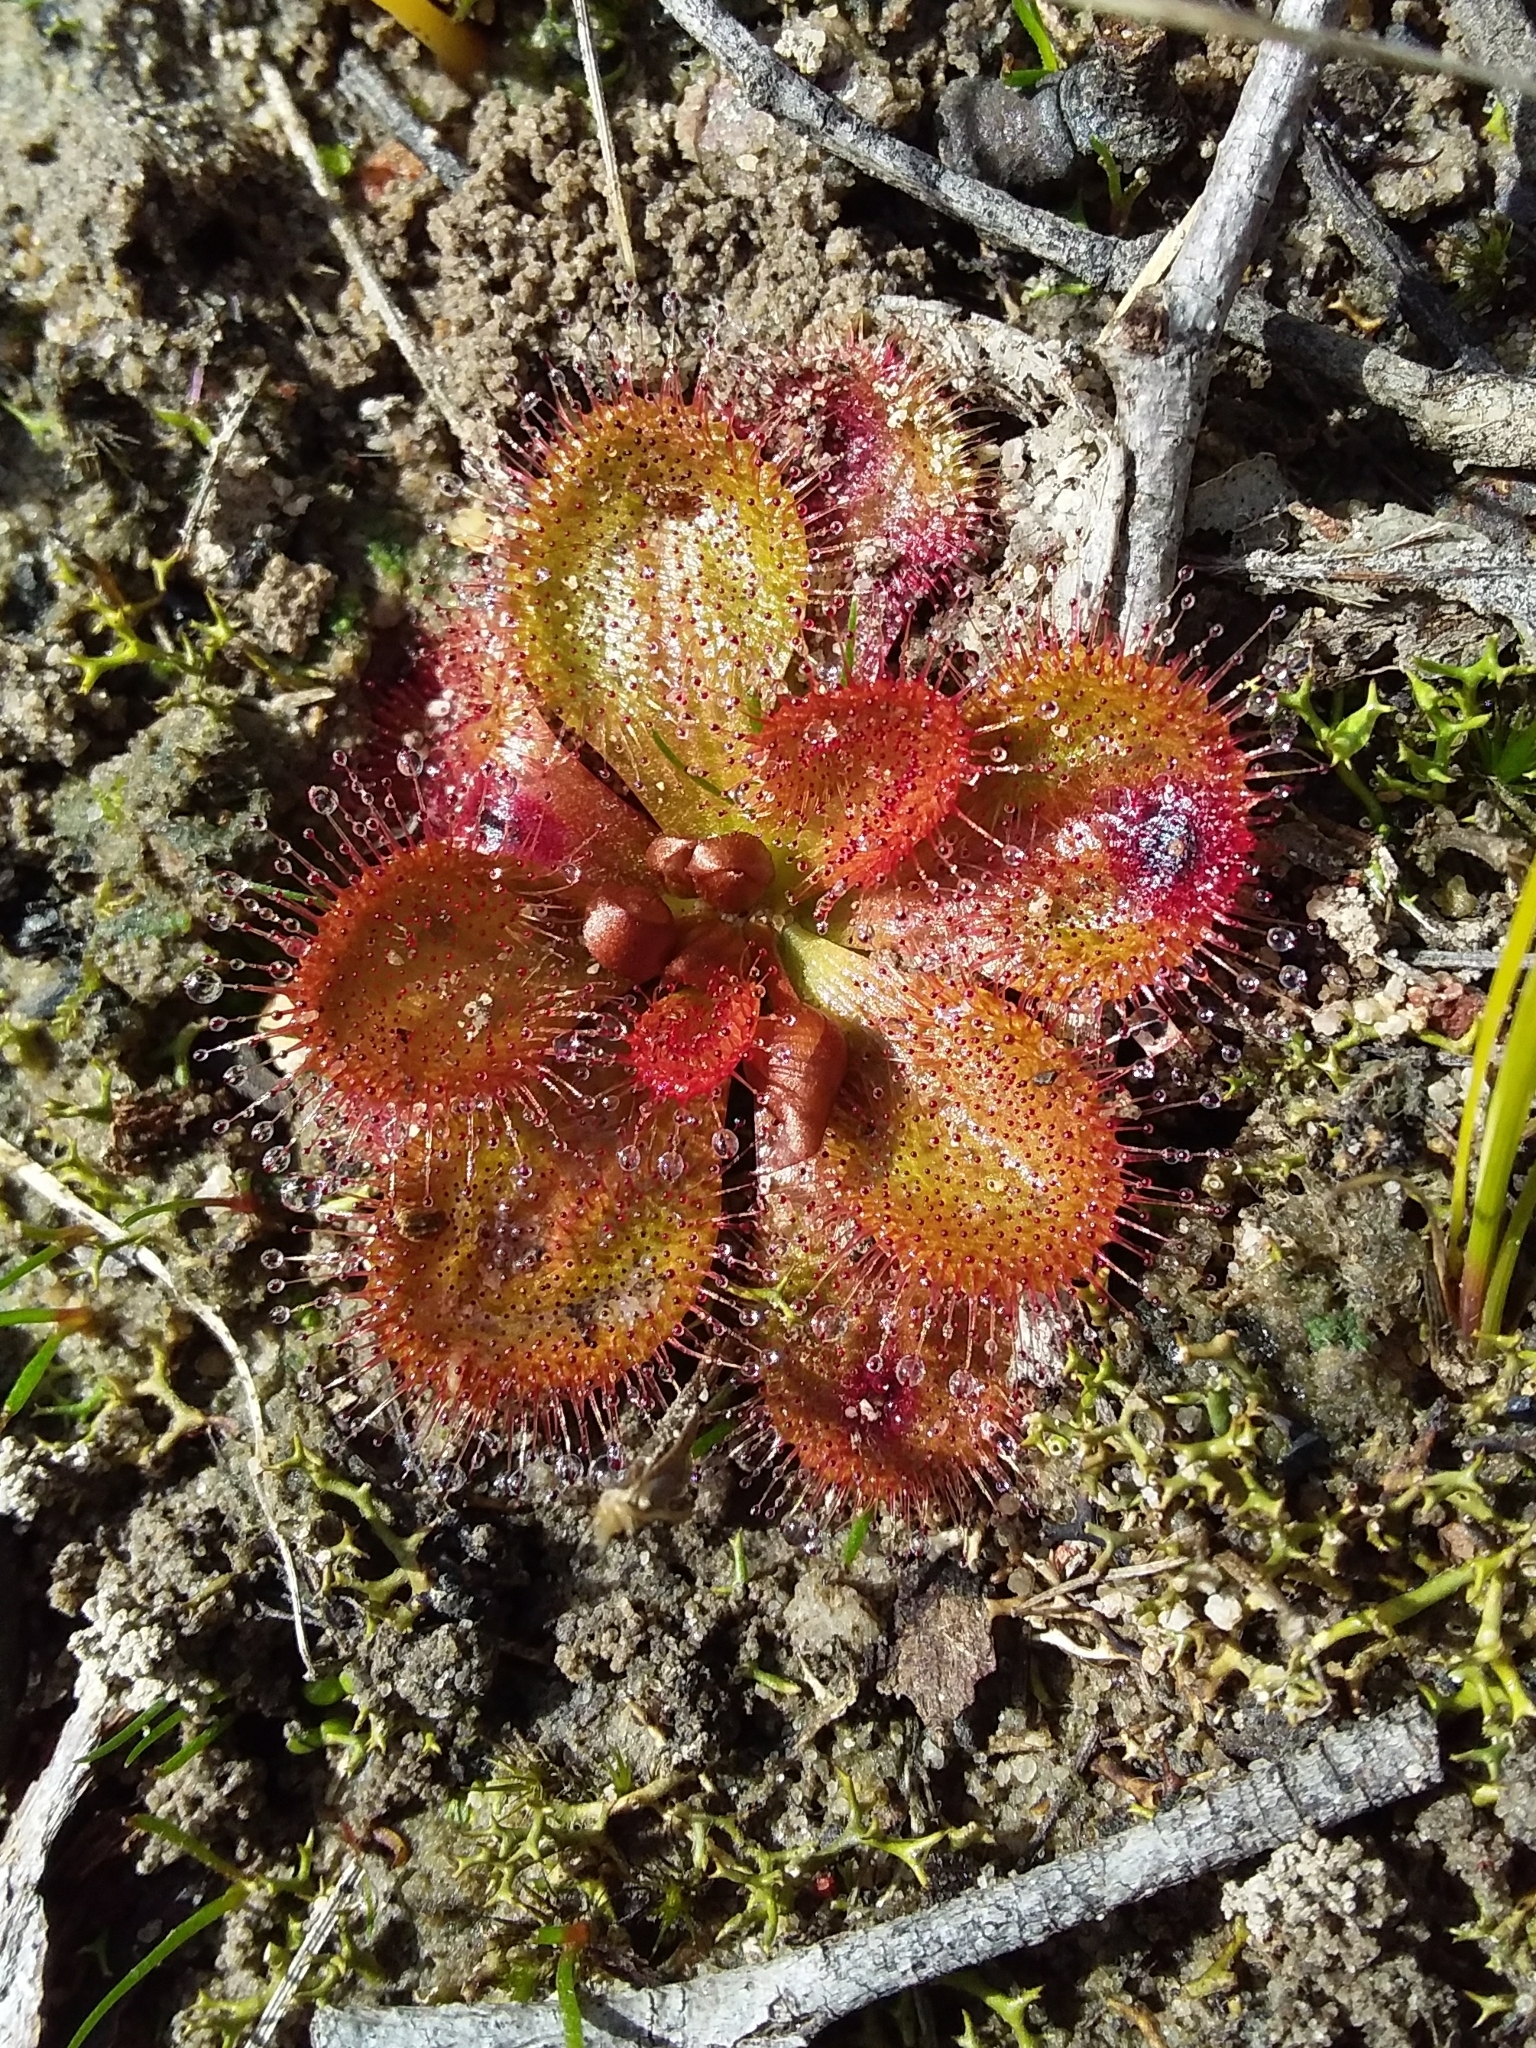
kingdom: Plantae
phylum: Tracheophyta
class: Magnoliopsida
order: Caryophyllales
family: Droseraceae
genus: Drosera
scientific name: Drosera whittakeri
